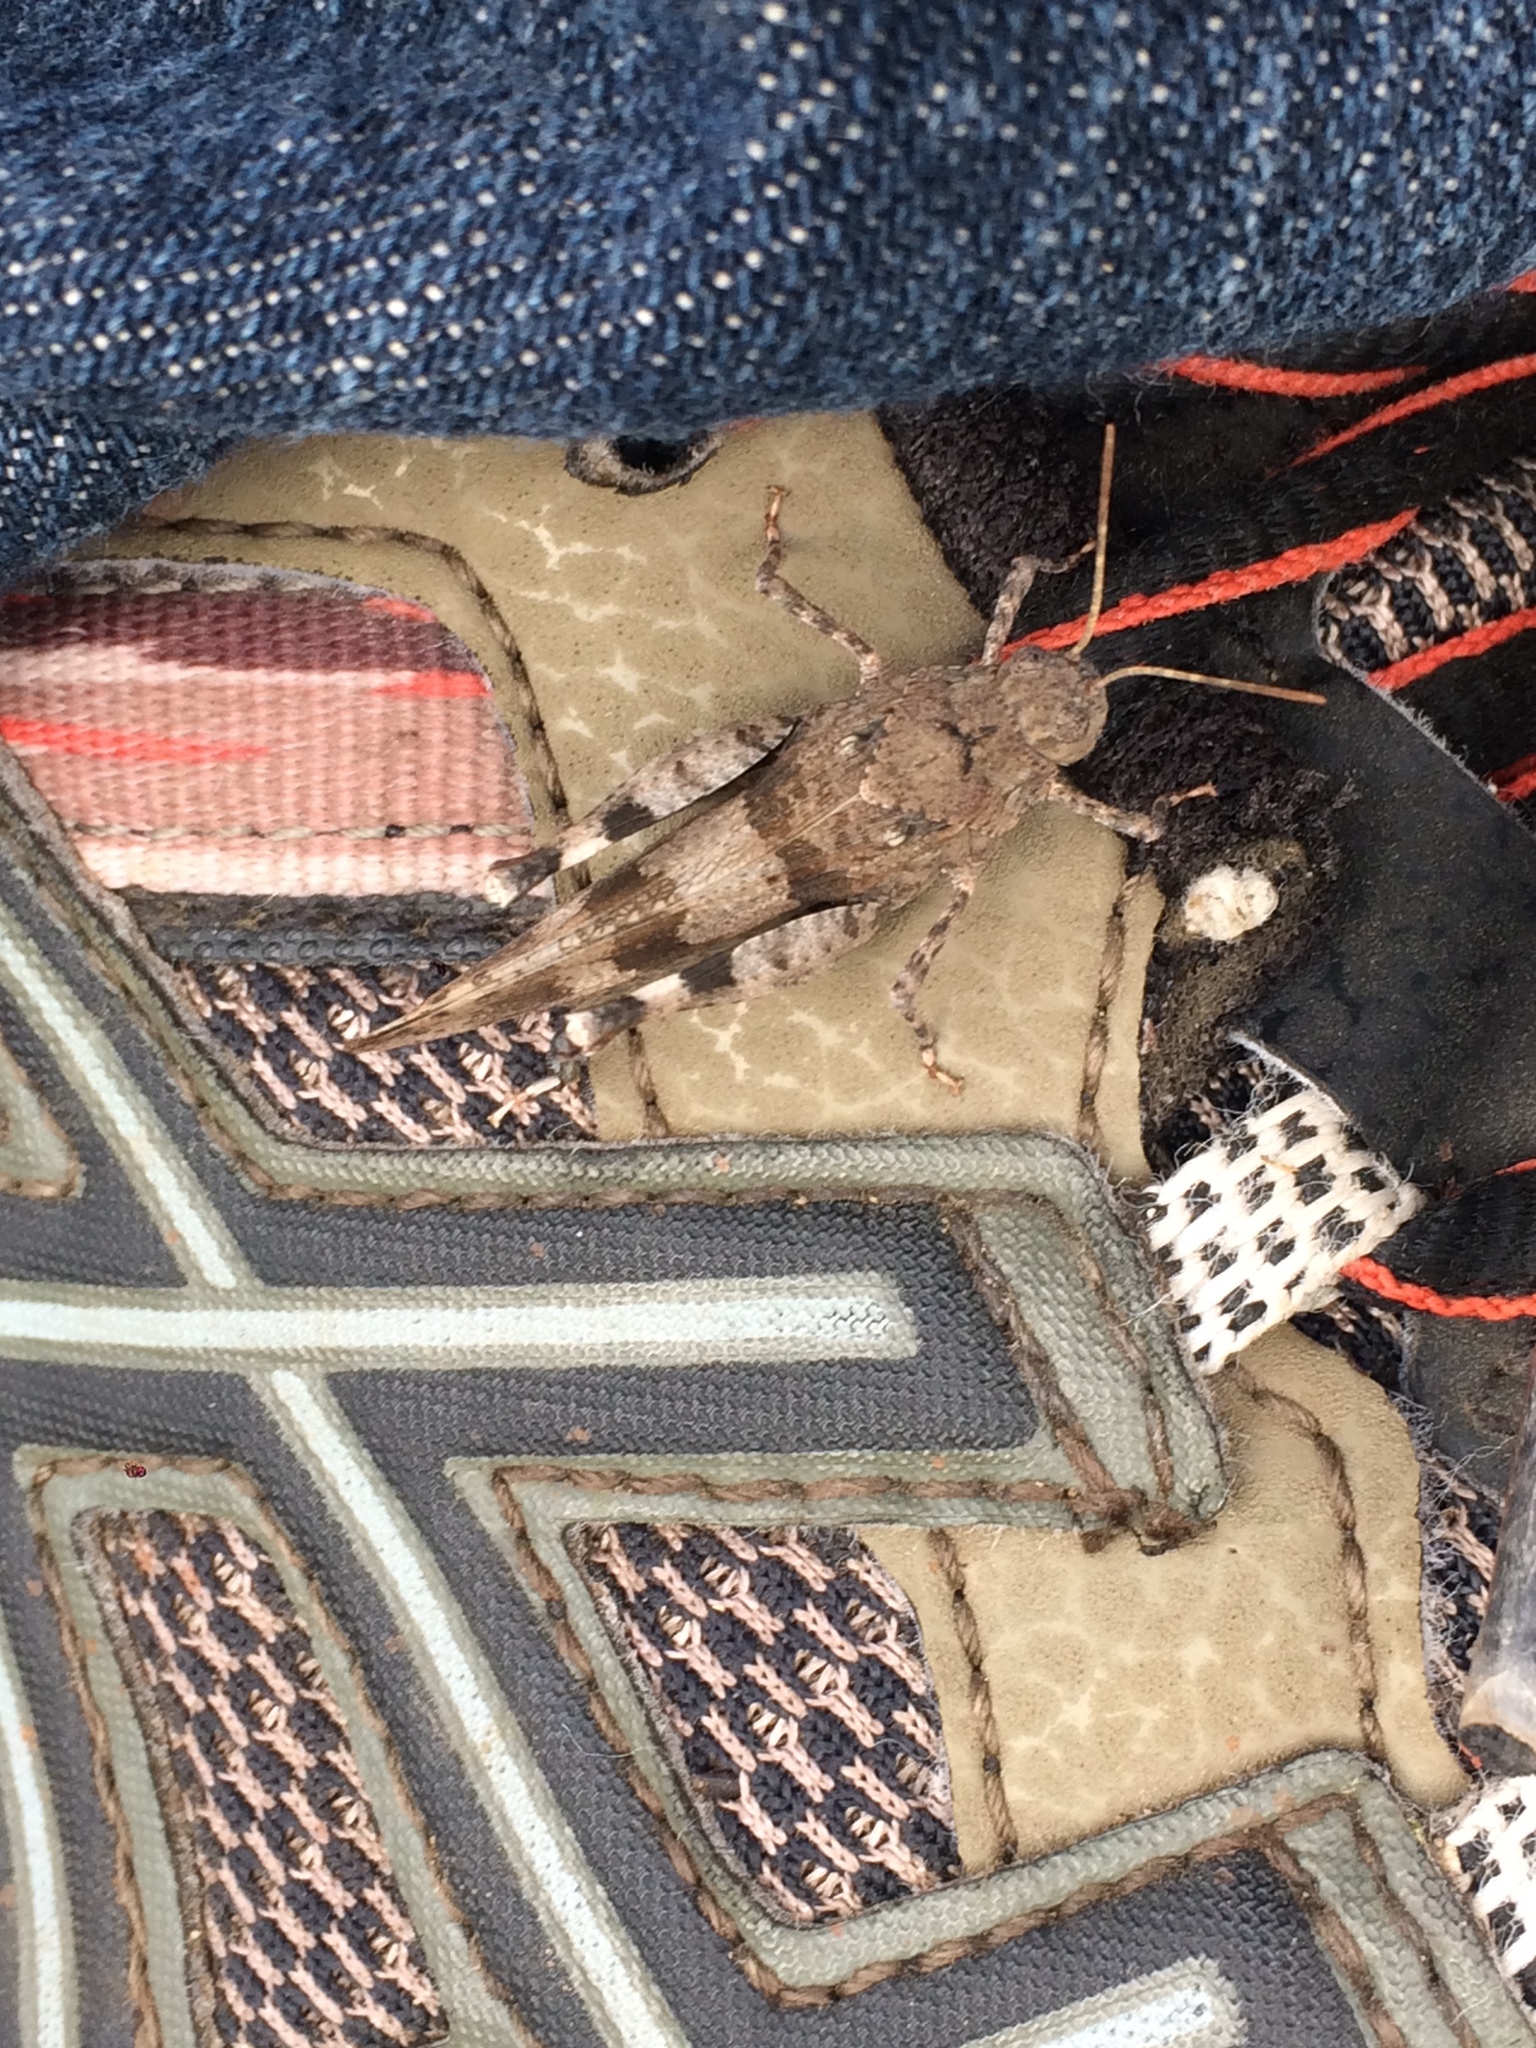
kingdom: Animalia
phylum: Arthropoda
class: Insecta
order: Orthoptera
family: Acrididae
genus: Oedipoda
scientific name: Oedipoda caerulescens
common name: Blue-winged grasshopper
